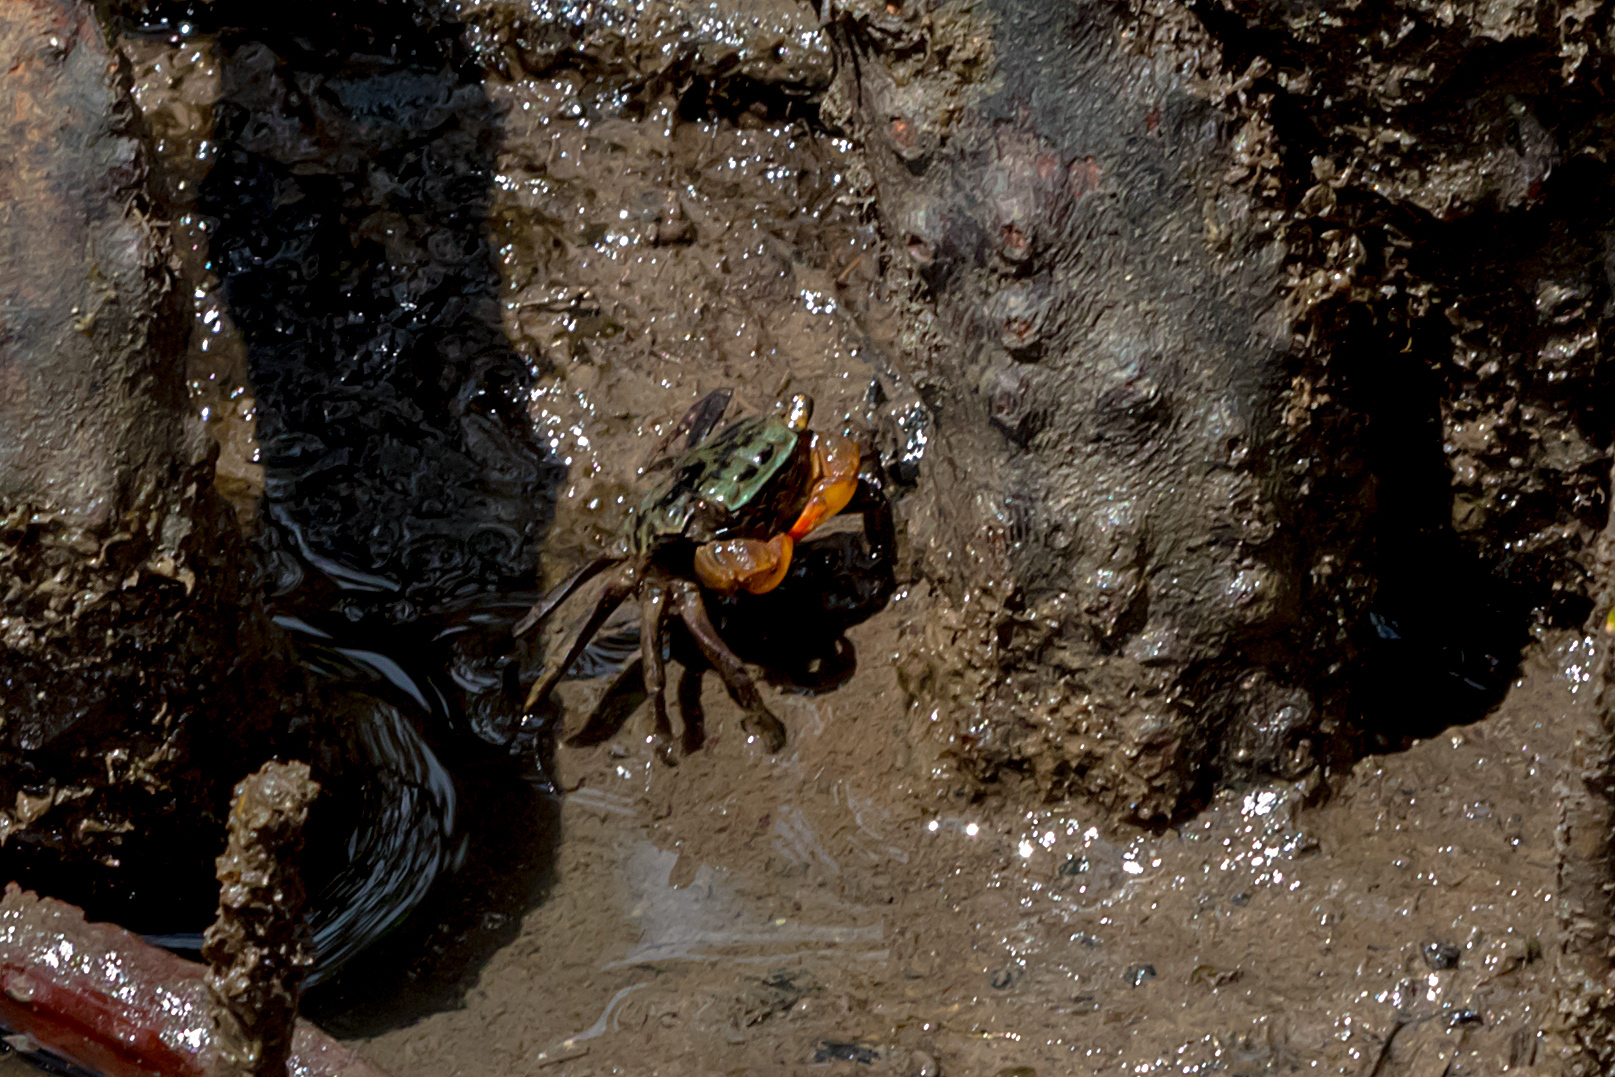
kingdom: Animalia
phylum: Arthropoda
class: Malacostraca
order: Decapoda
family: Sesarmidae
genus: Parasesarma
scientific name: Parasesarma erythodactylum
